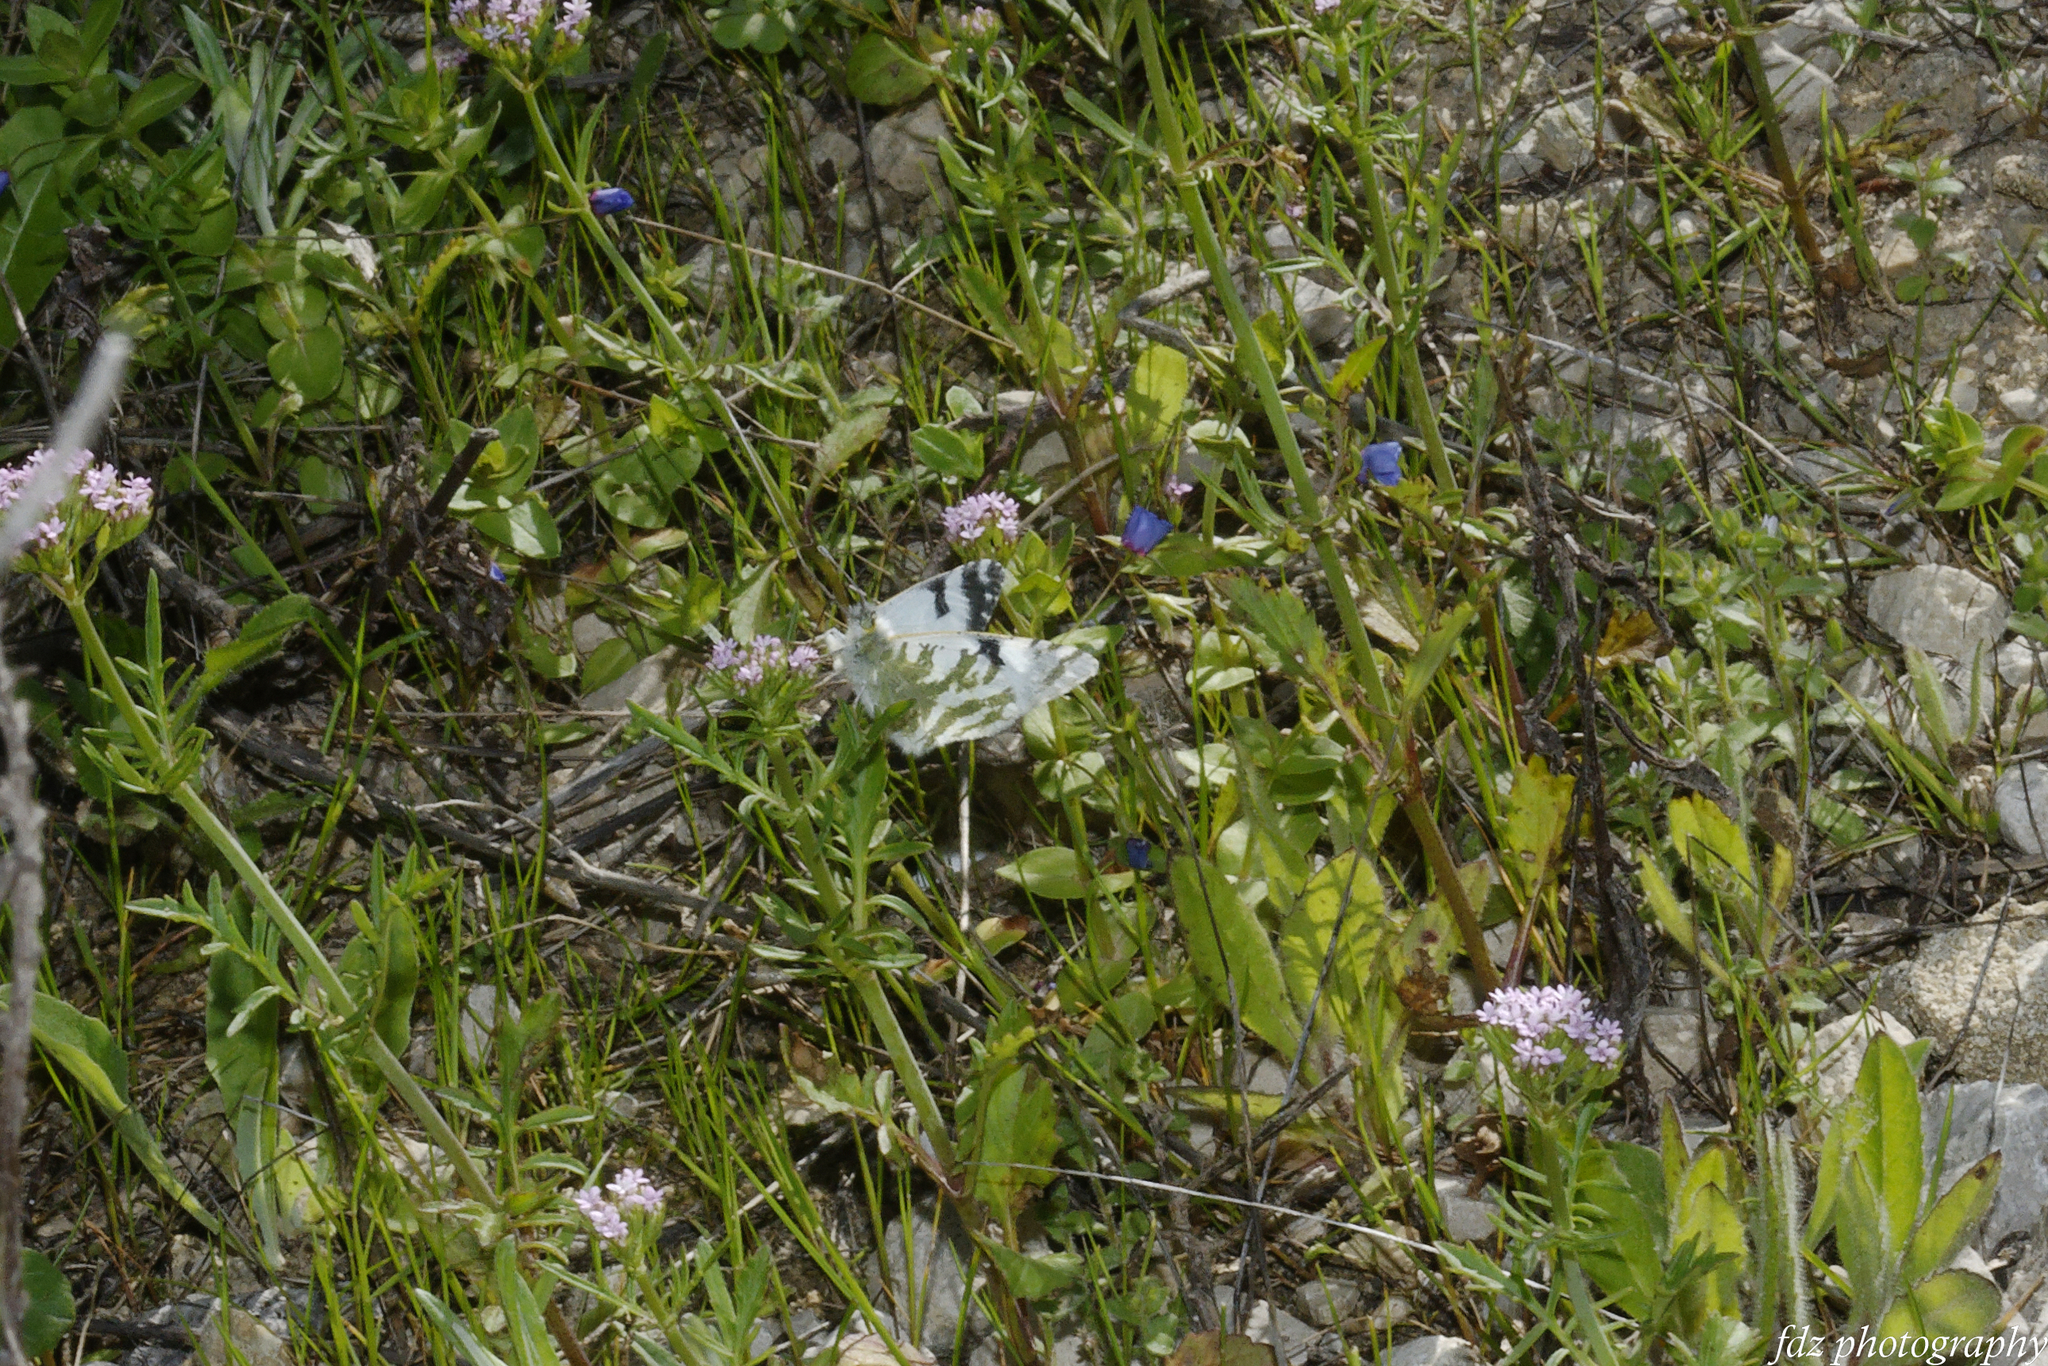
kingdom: Animalia
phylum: Arthropoda
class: Insecta
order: Lepidoptera
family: Pieridae
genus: Euchloe
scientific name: Euchloe belemia
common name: Green-striped white
